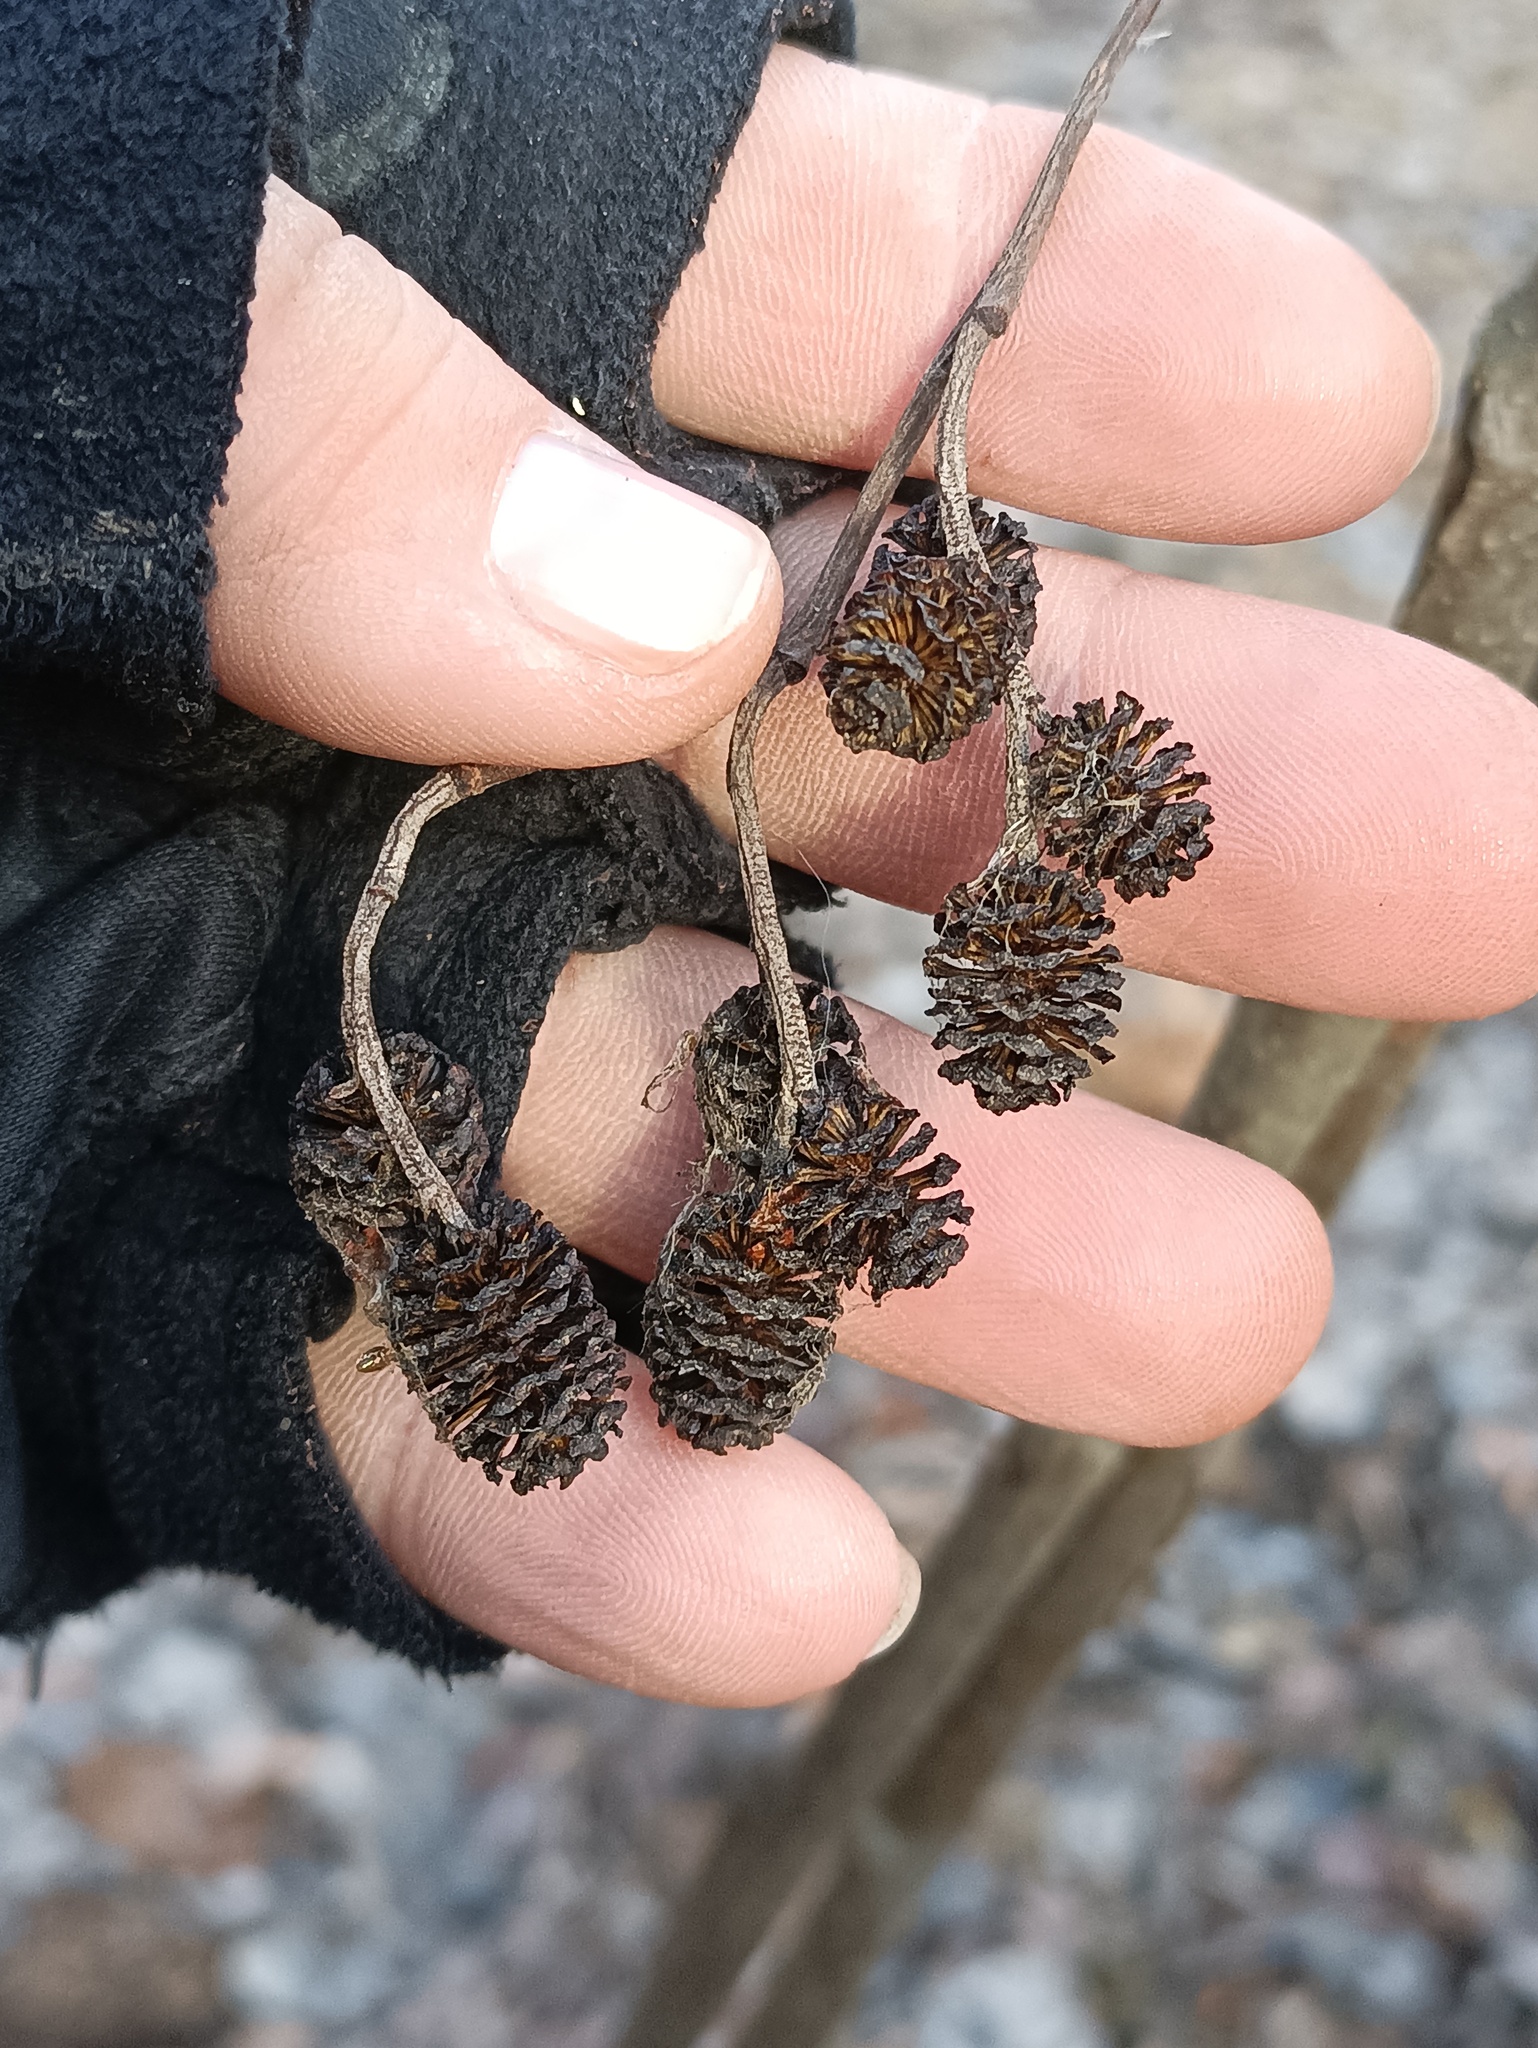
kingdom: Plantae
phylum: Tracheophyta
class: Magnoliopsida
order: Fagales
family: Betulaceae
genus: Alnus
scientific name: Alnus incana
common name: Grey alder
